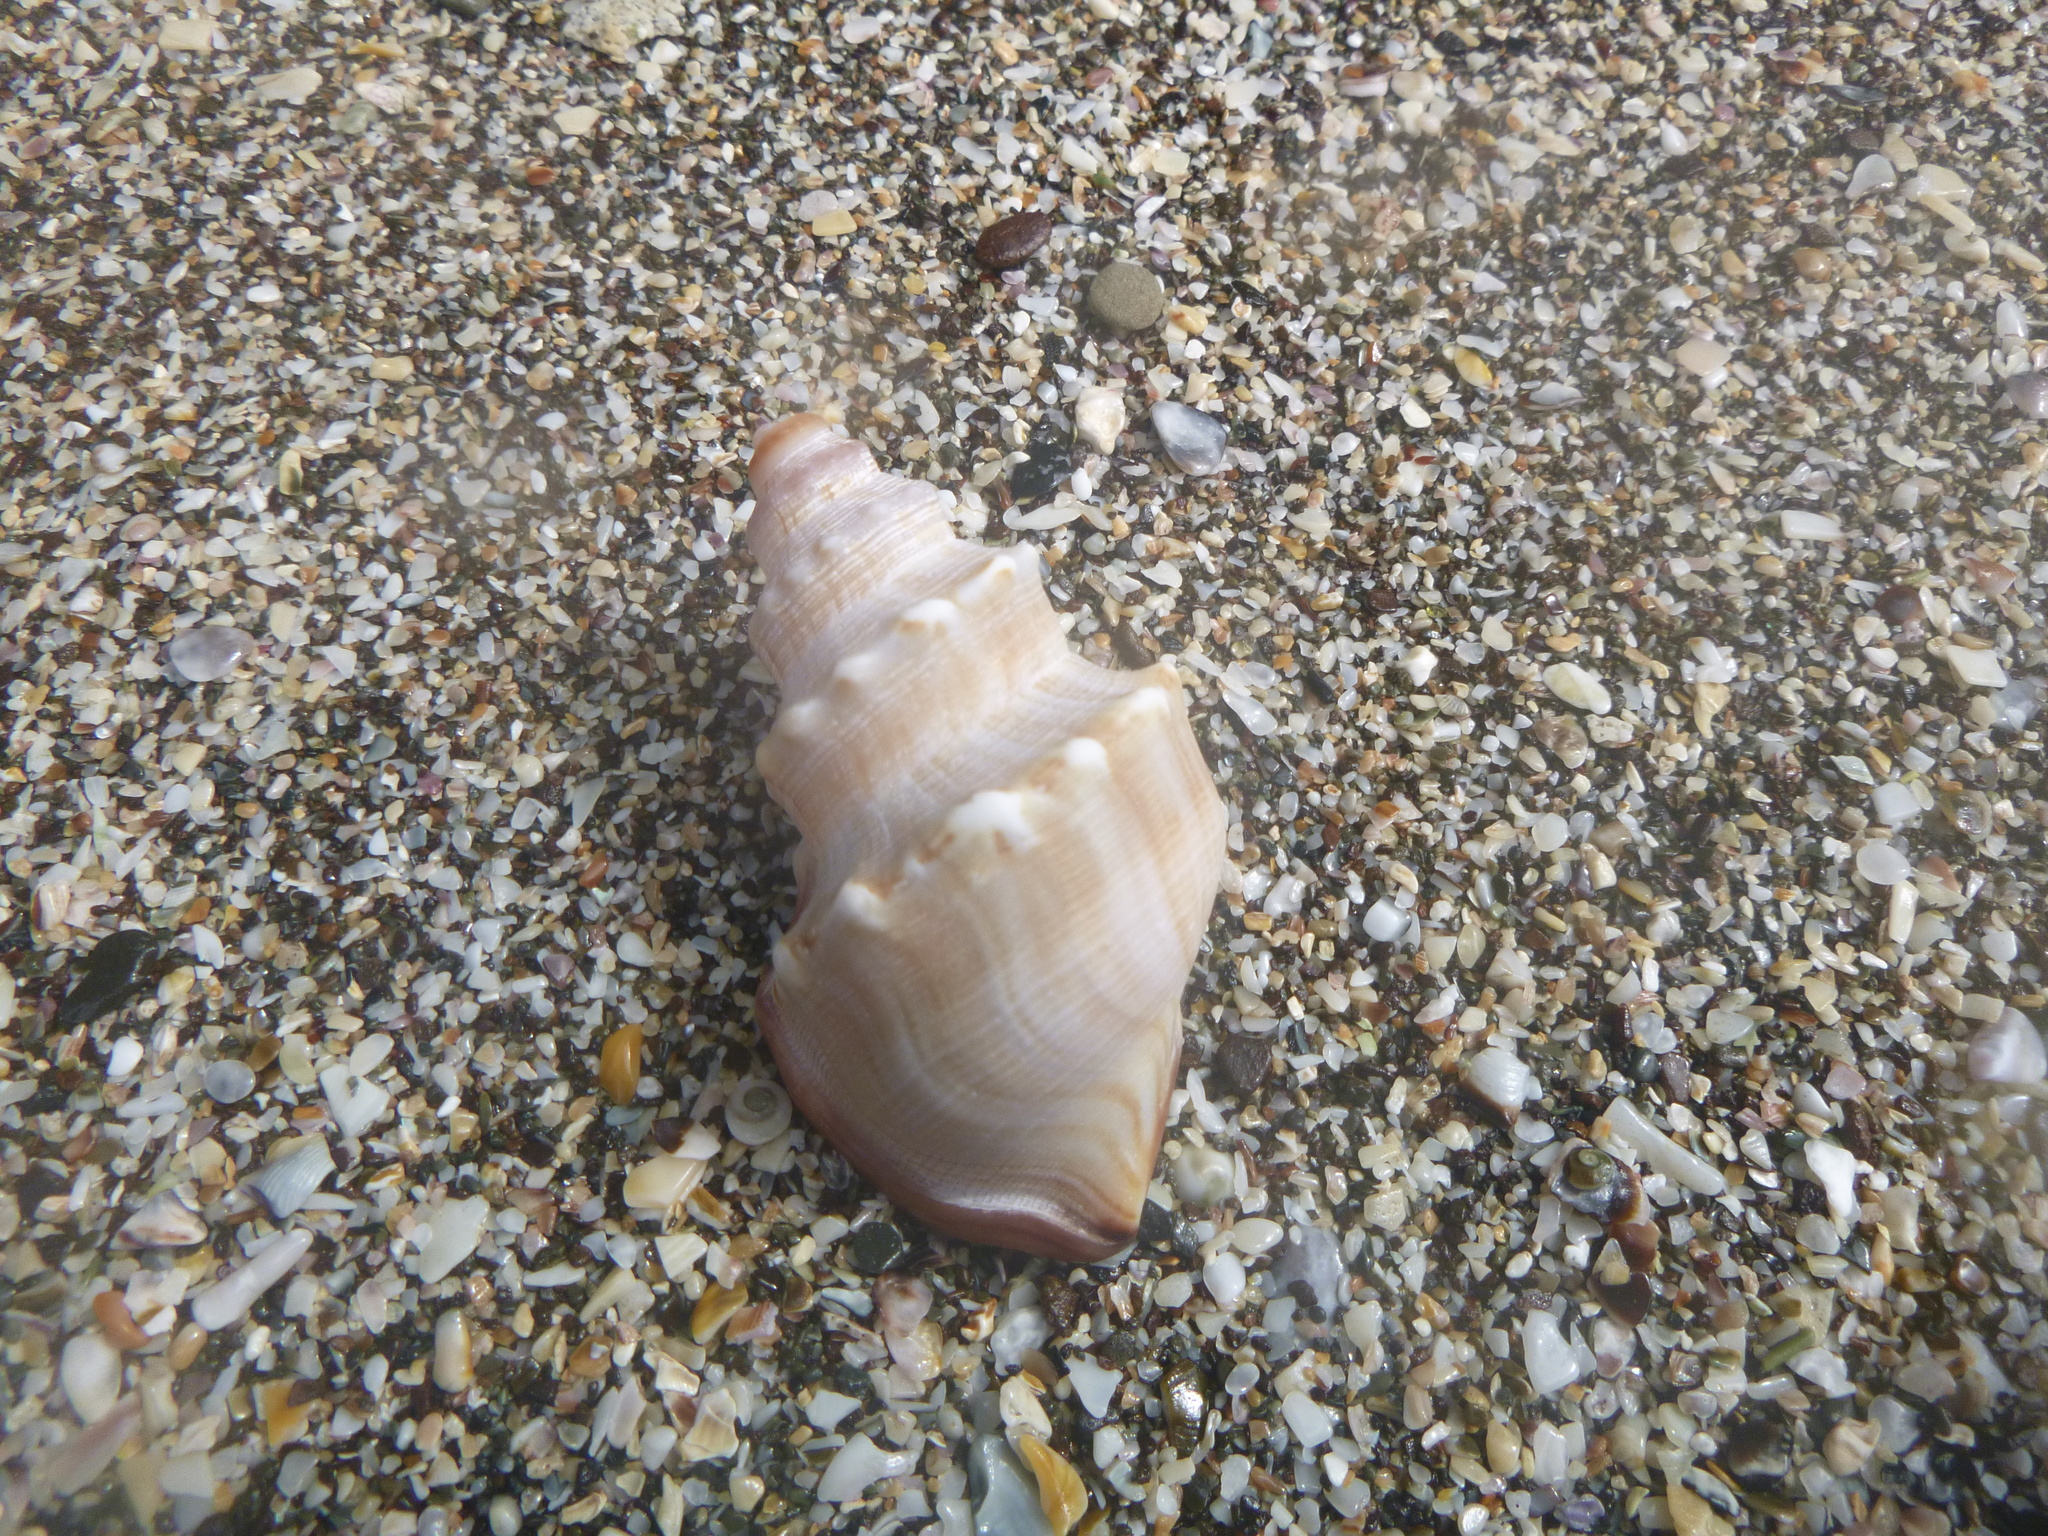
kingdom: Animalia
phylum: Mollusca
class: Gastropoda
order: Littorinimorpha
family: Struthiolariidae
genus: Struthiolaria
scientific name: Struthiolaria papulosa
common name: Large ostrich foot
